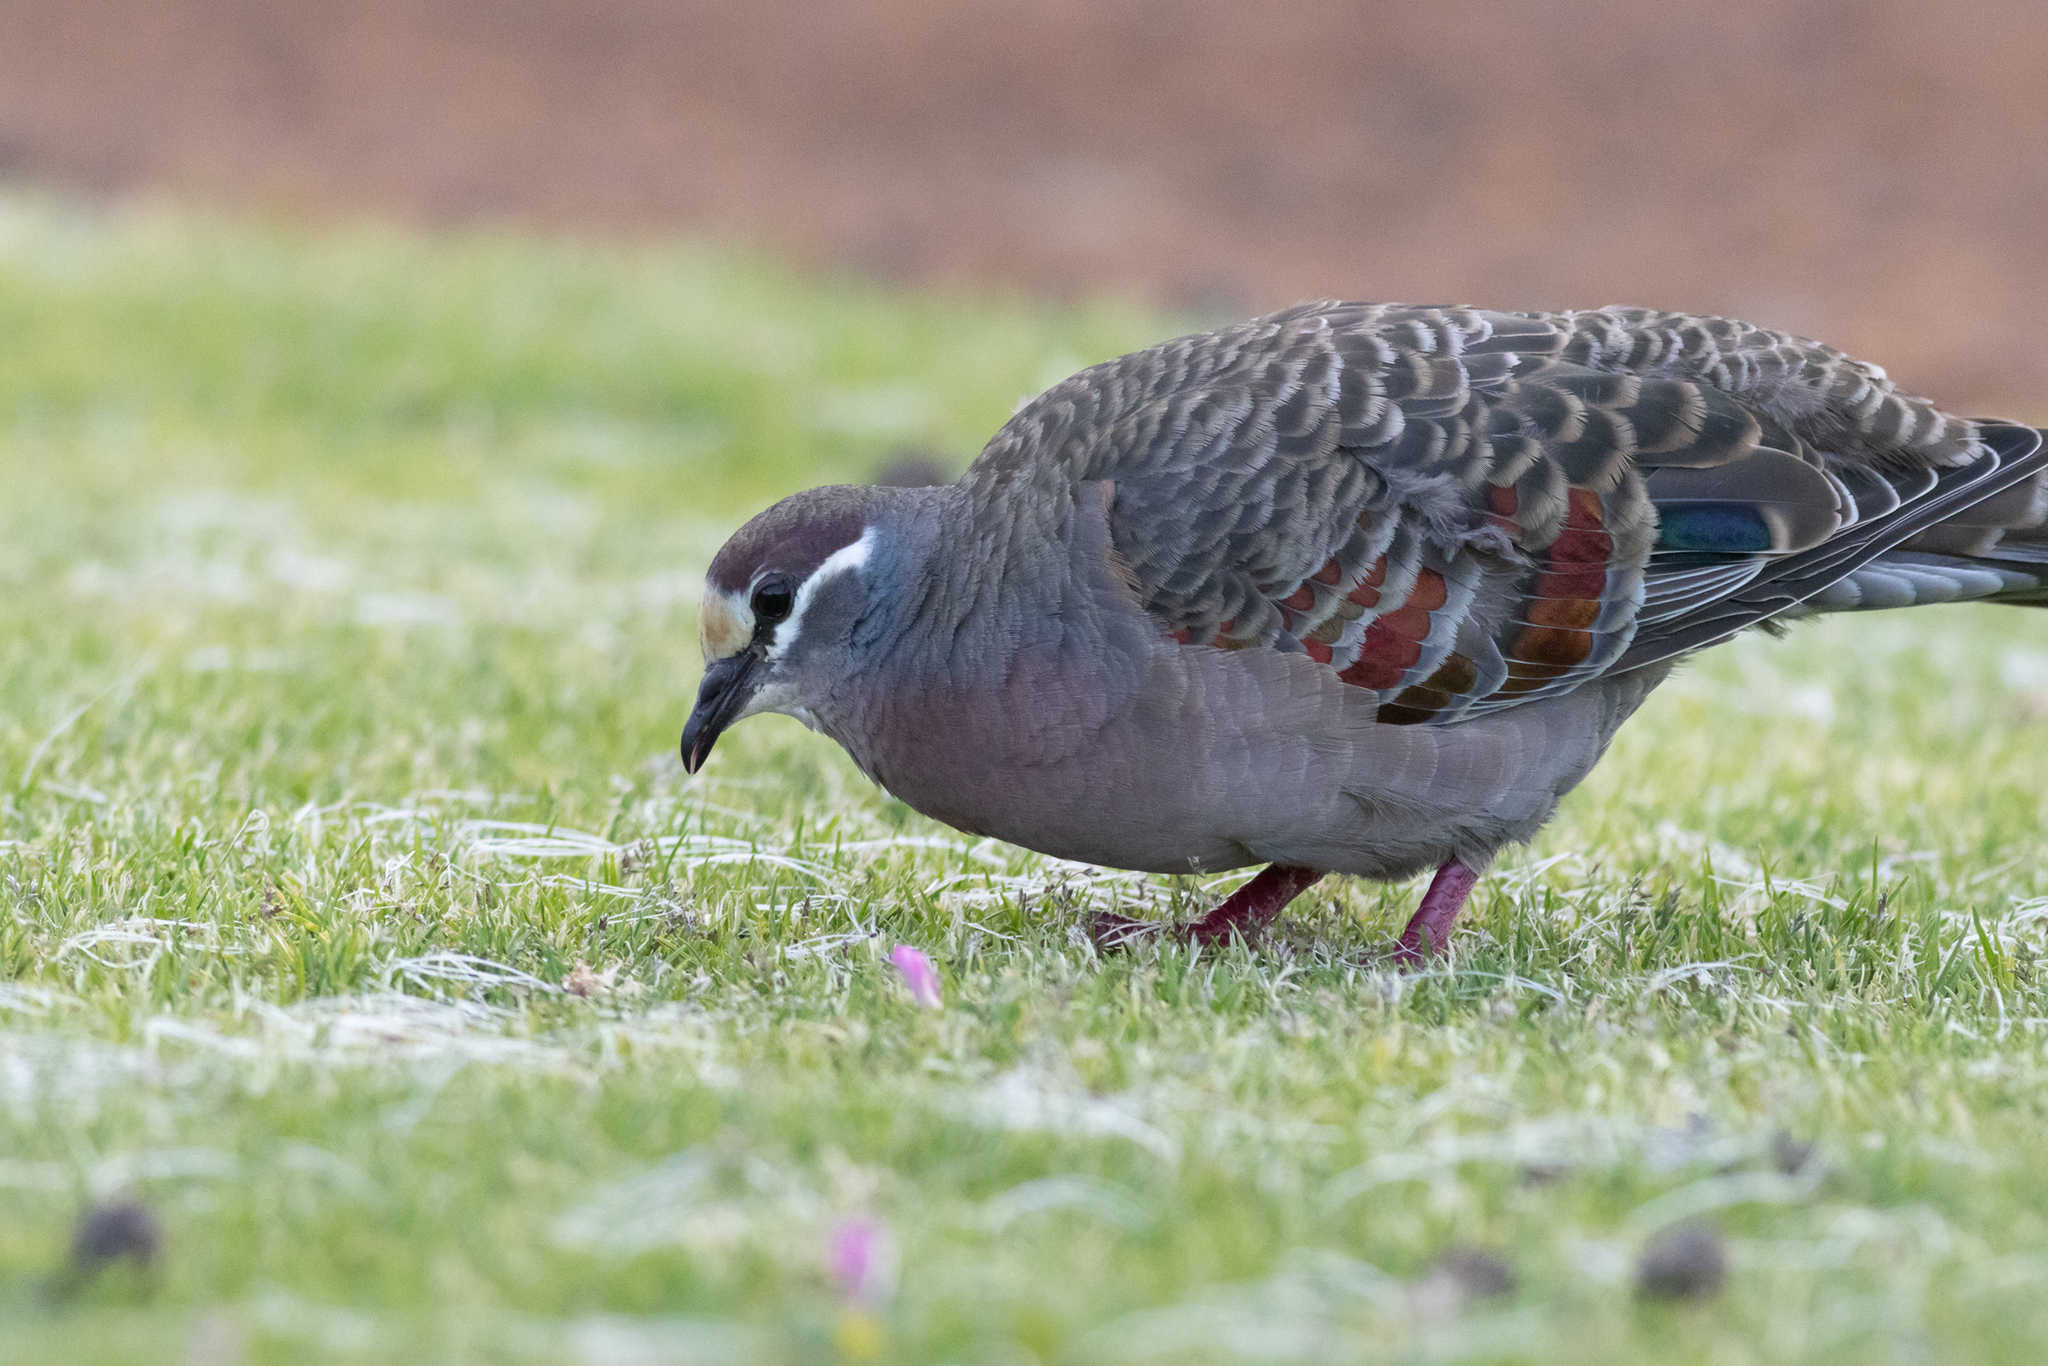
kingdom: Animalia
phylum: Chordata
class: Aves
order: Columbiformes
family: Columbidae
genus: Phaps
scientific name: Phaps chalcoptera
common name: Common bronzewing
